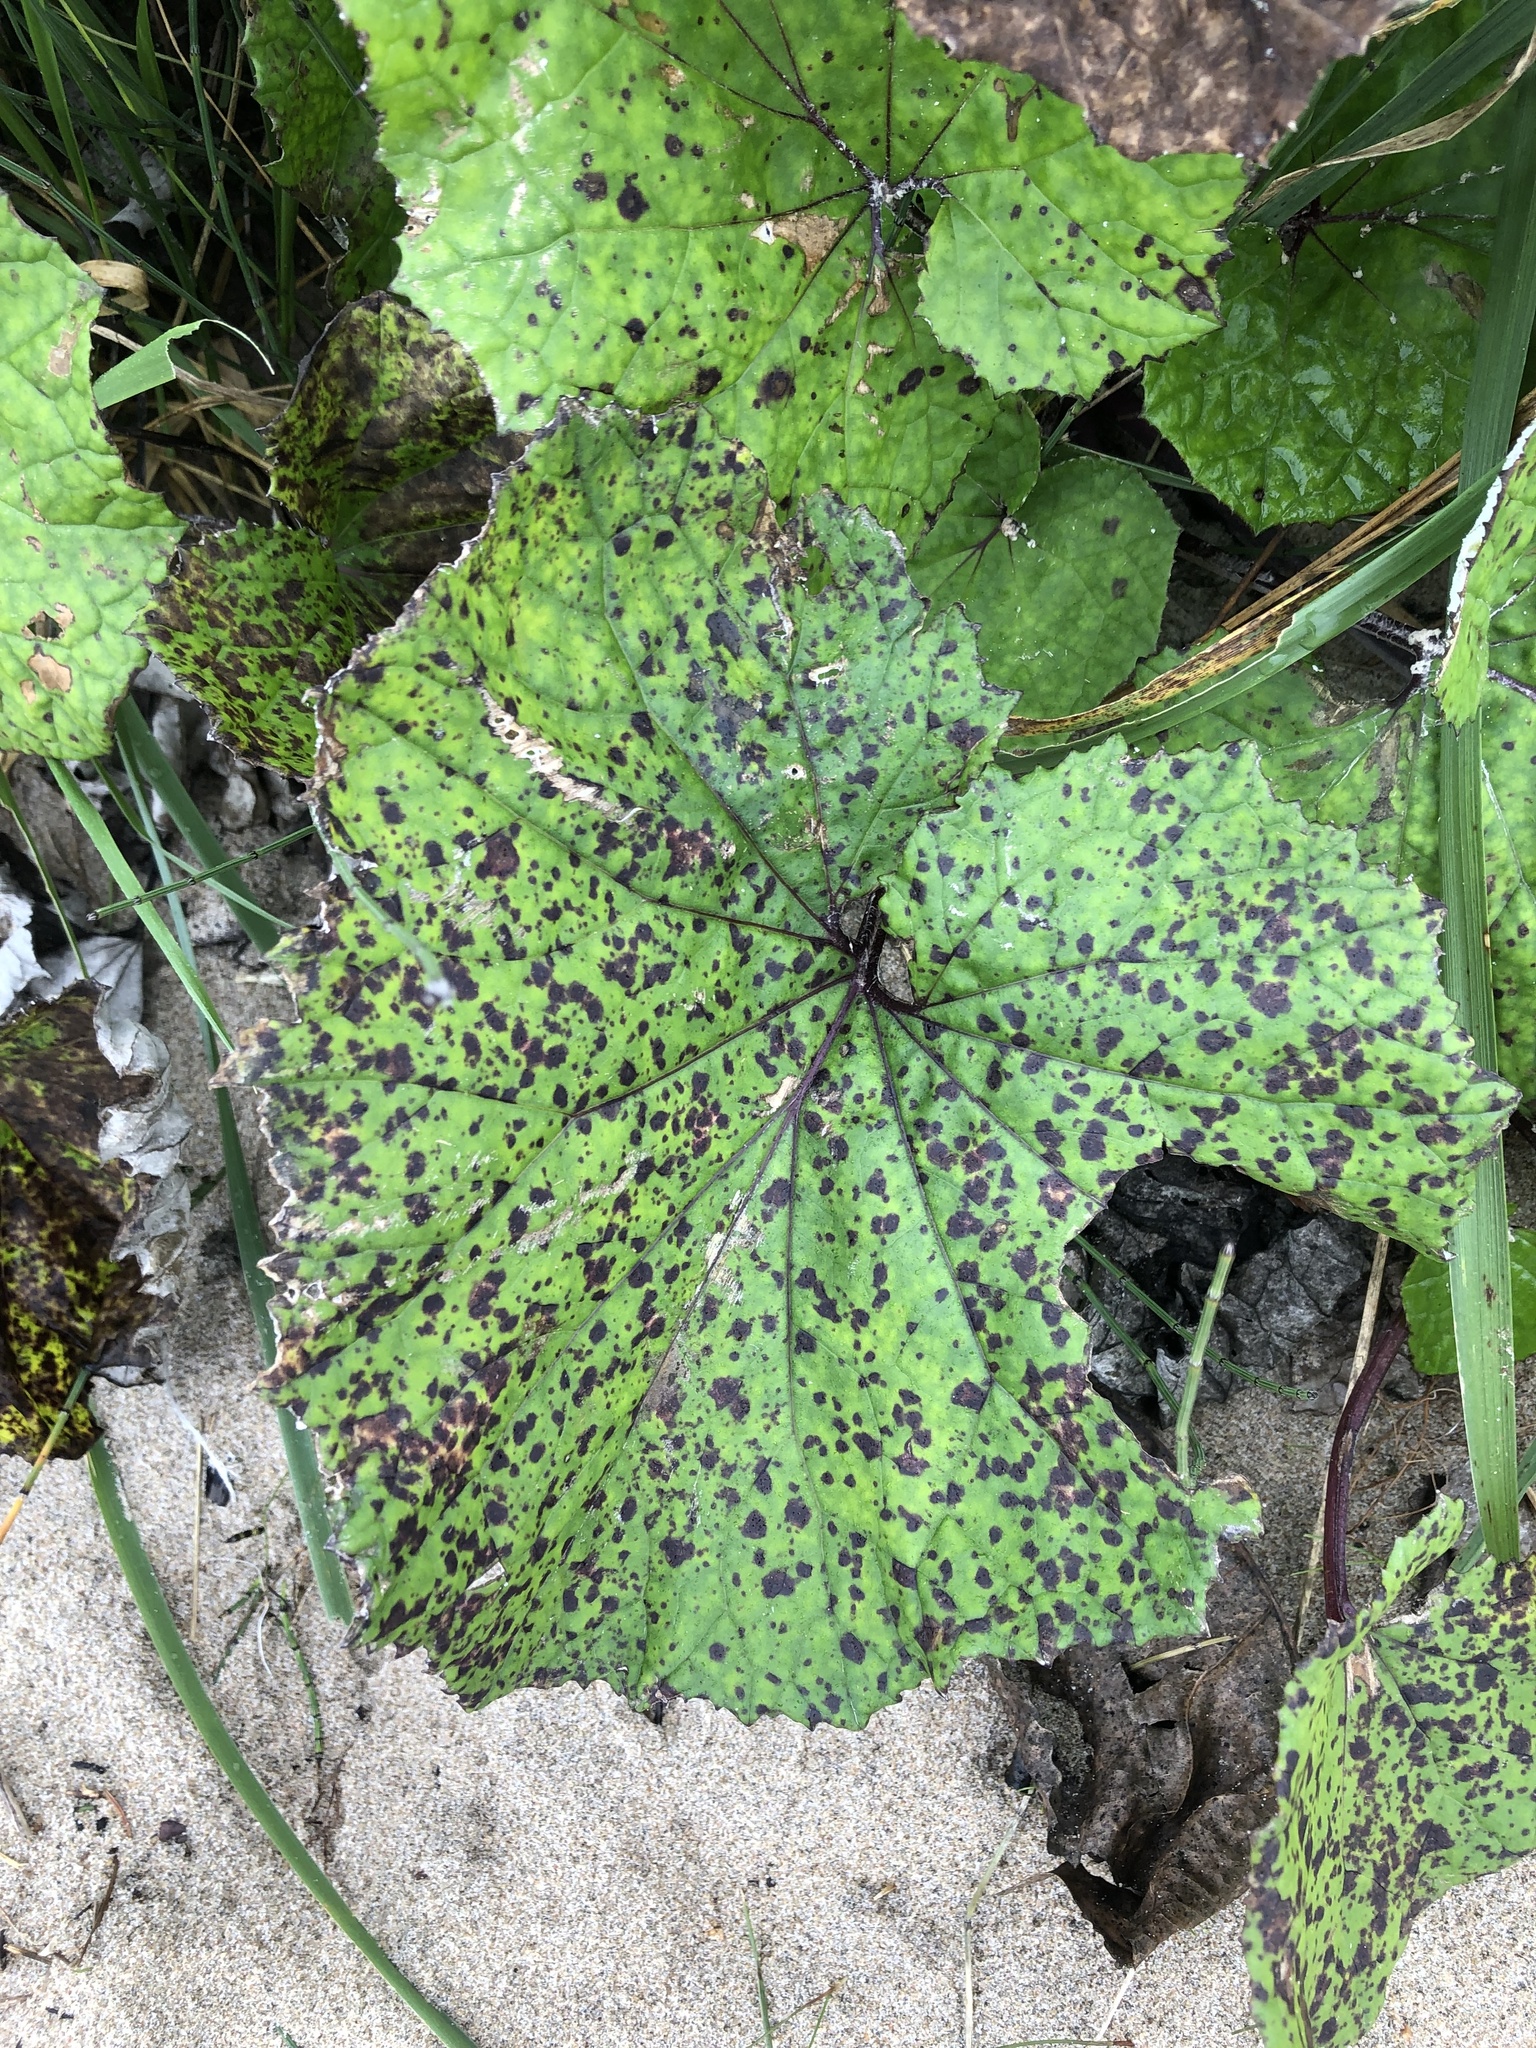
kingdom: Plantae
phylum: Tracheophyta
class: Magnoliopsida
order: Asterales
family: Asteraceae
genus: Tussilago
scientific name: Tussilago farfara
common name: Coltsfoot
